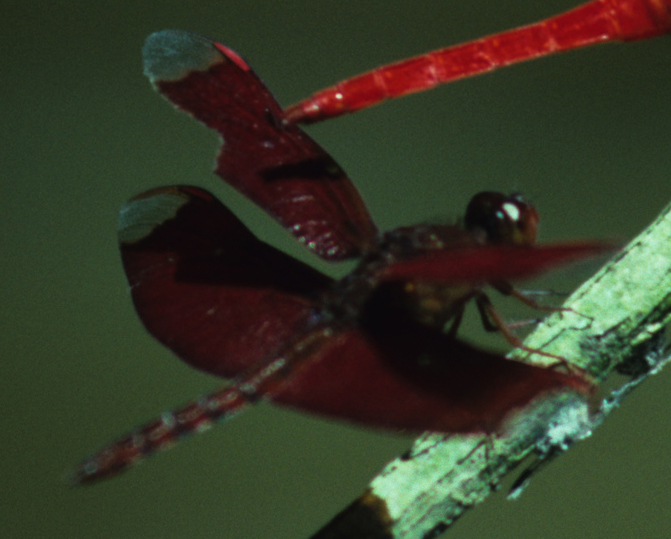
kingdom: Animalia
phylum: Arthropoda
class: Insecta
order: Odonata
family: Libellulidae
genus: Neurothemis
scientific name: Neurothemis fulvia
